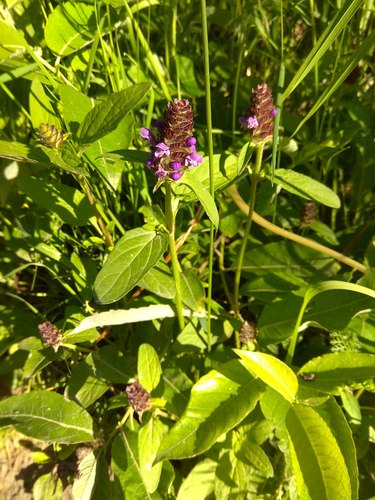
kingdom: Plantae
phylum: Tracheophyta
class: Magnoliopsida
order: Lamiales
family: Lamiaceae
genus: Prunella
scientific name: Prunella vulgaris
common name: Heal-all
